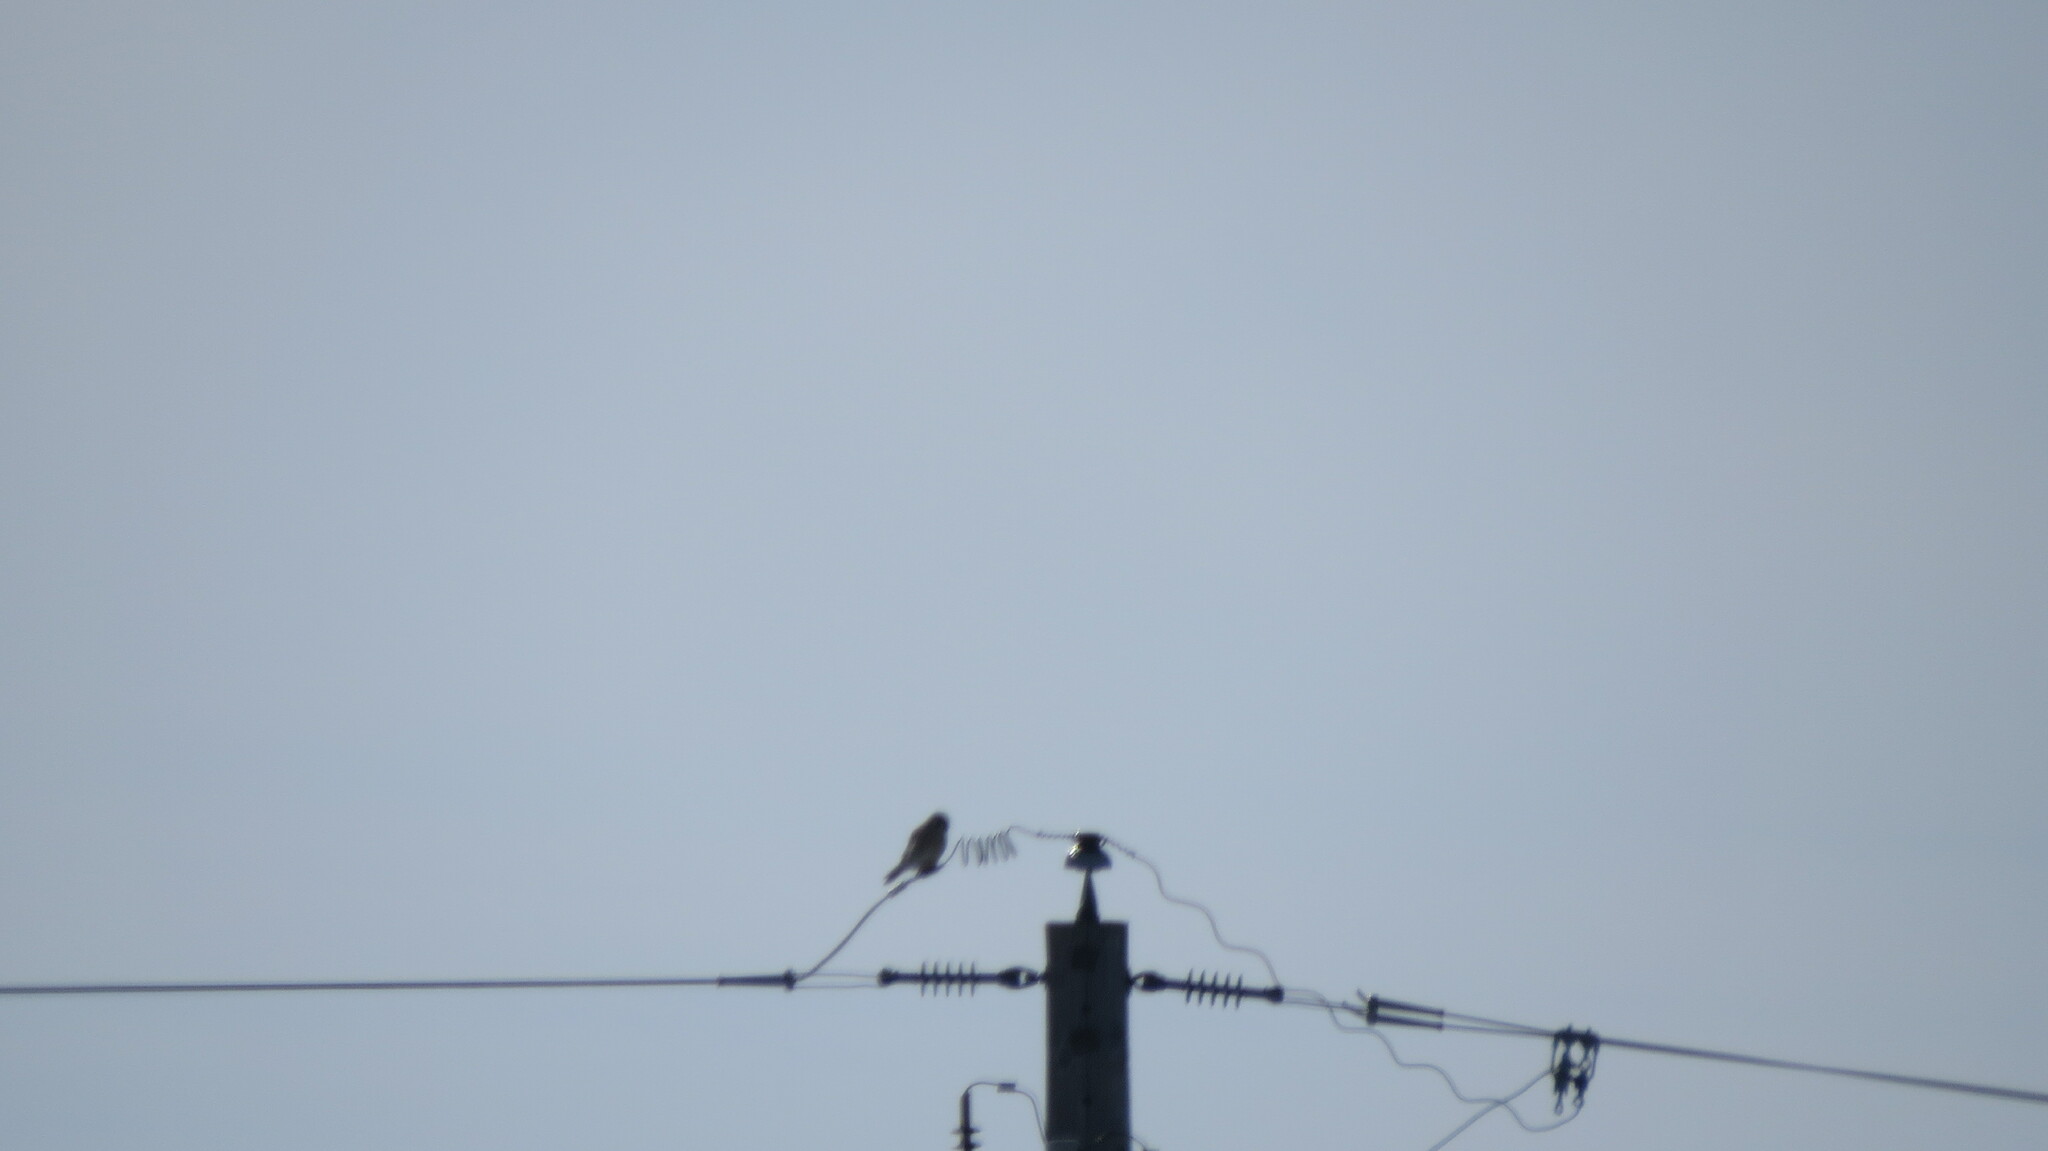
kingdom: Animalia
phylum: Chordata
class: Aves
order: Falconiformes
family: Falconidae
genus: Falco
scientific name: Falco sparverius
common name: American kestrel
